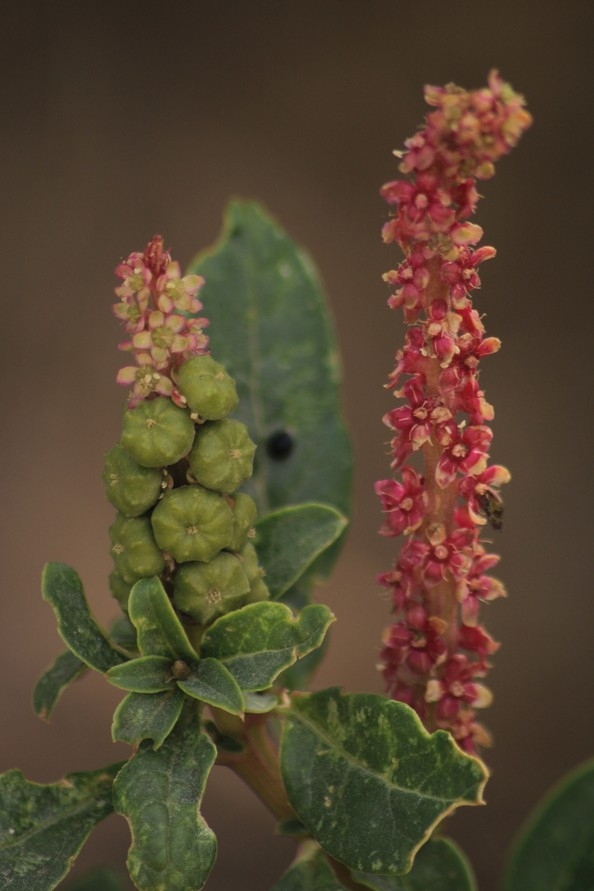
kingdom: Plantae
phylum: Tracheophyta
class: Magnoliopsida
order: Caryophyllales
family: Phytolaccaceae
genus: Phytolacca
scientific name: Phytolacca icosandra
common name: Button pokeweed
